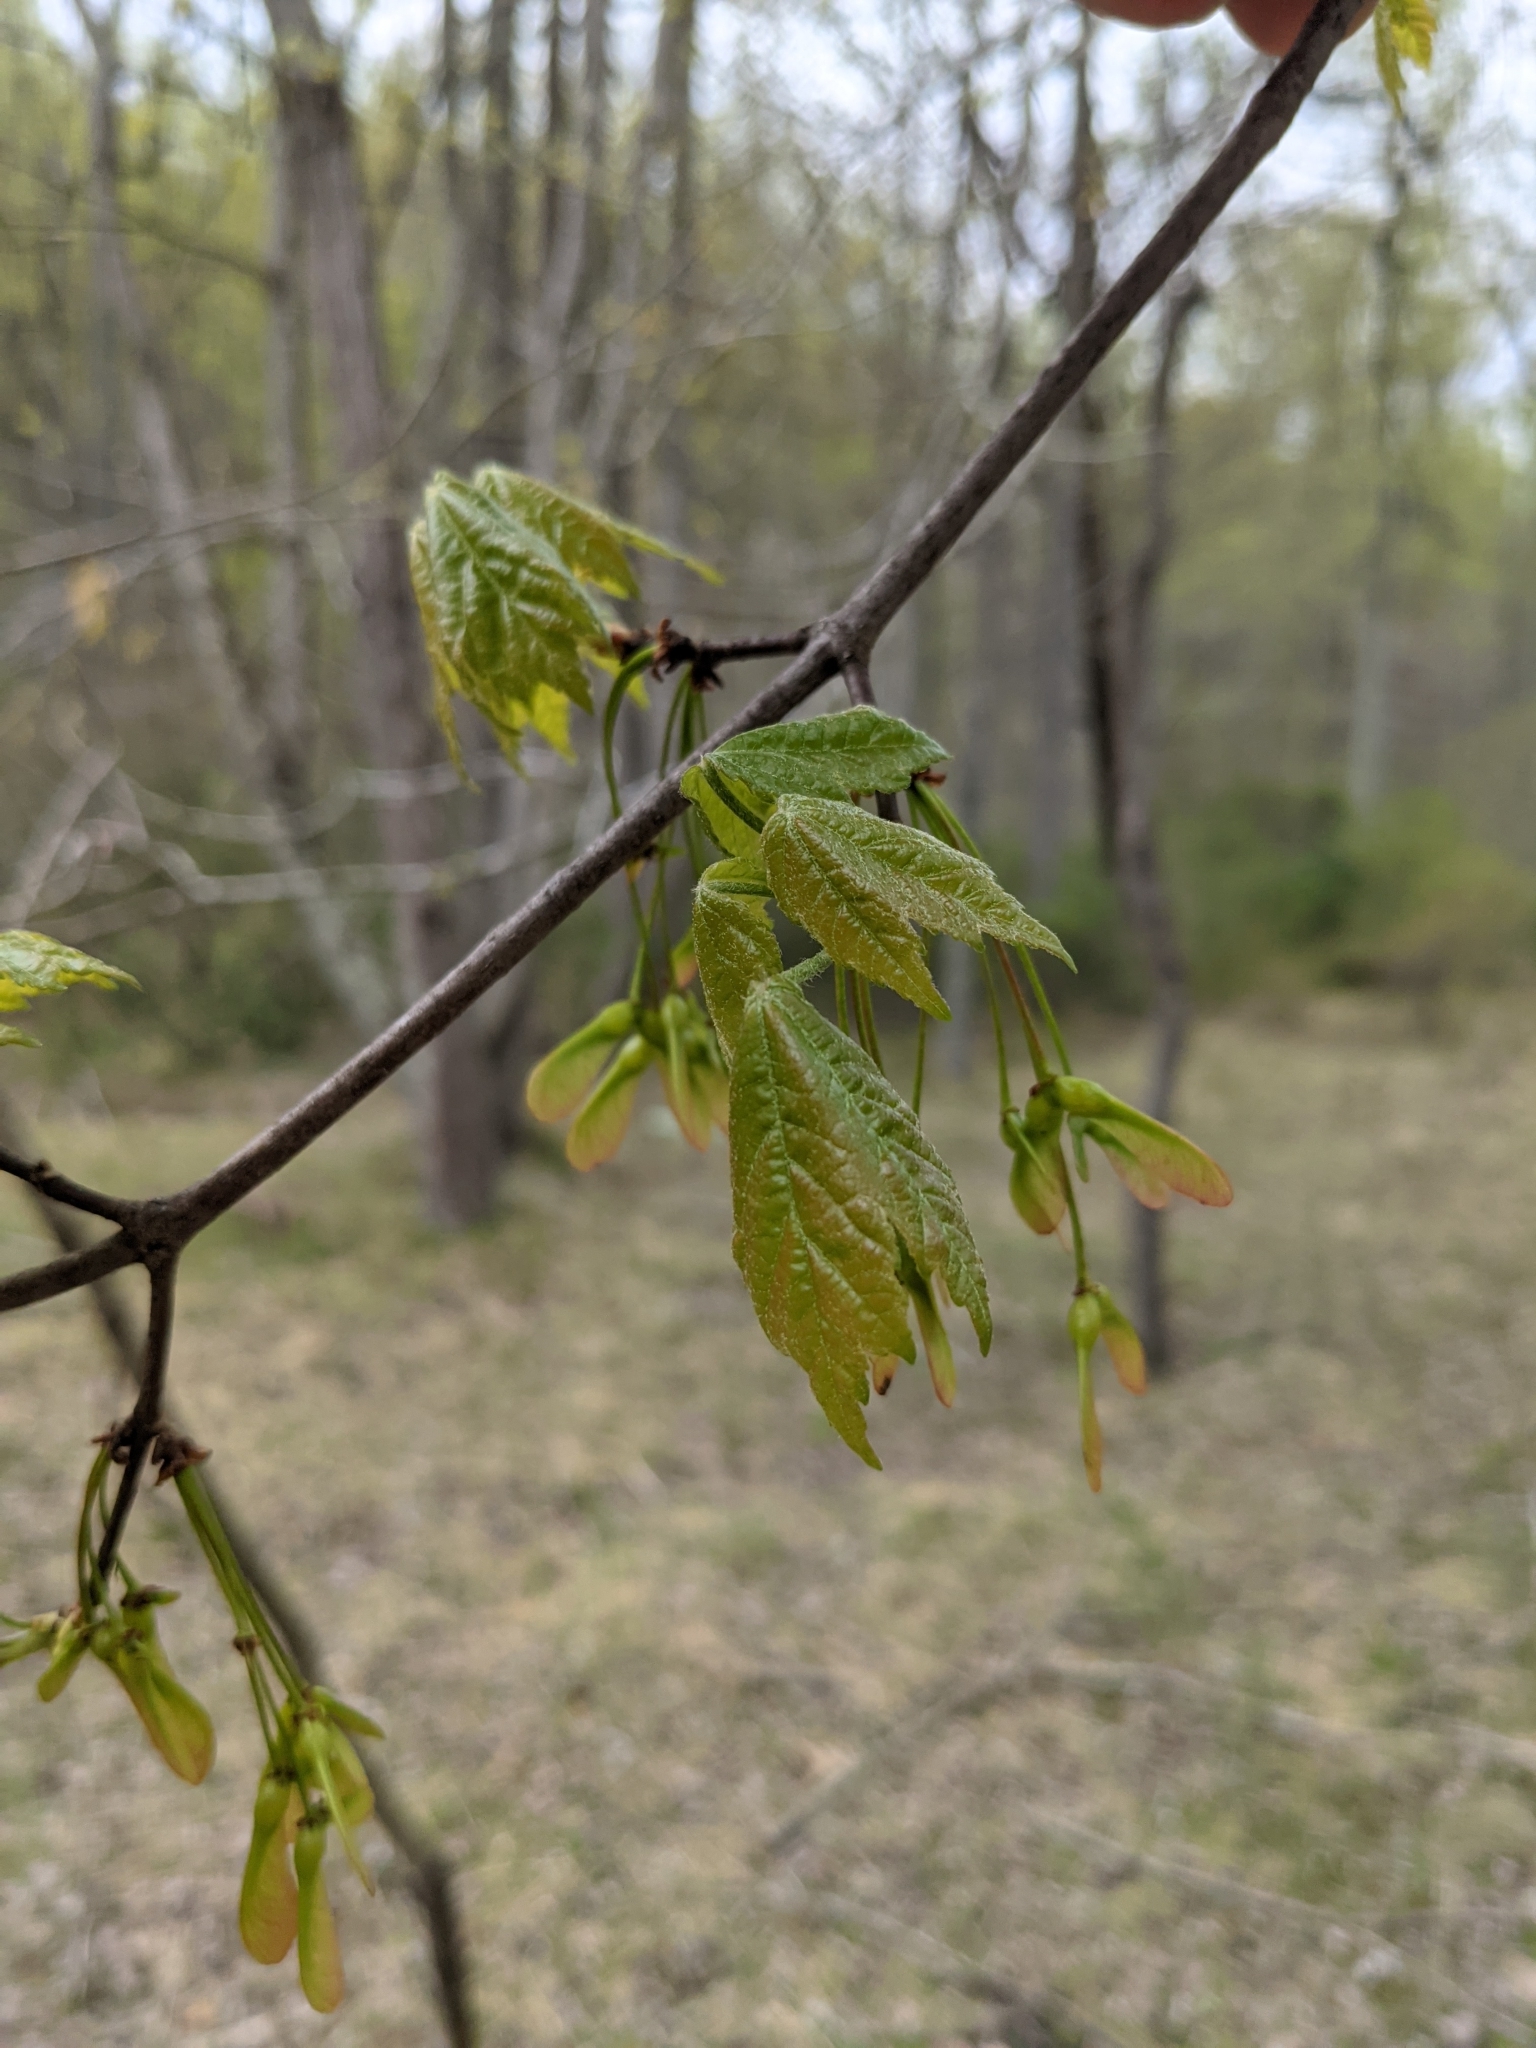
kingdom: Plantae
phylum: Tracheophyta
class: Magnoliopsida
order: Sapindales
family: Sapindaceae
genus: Acer
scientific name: Acer rubrum
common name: Red maple
